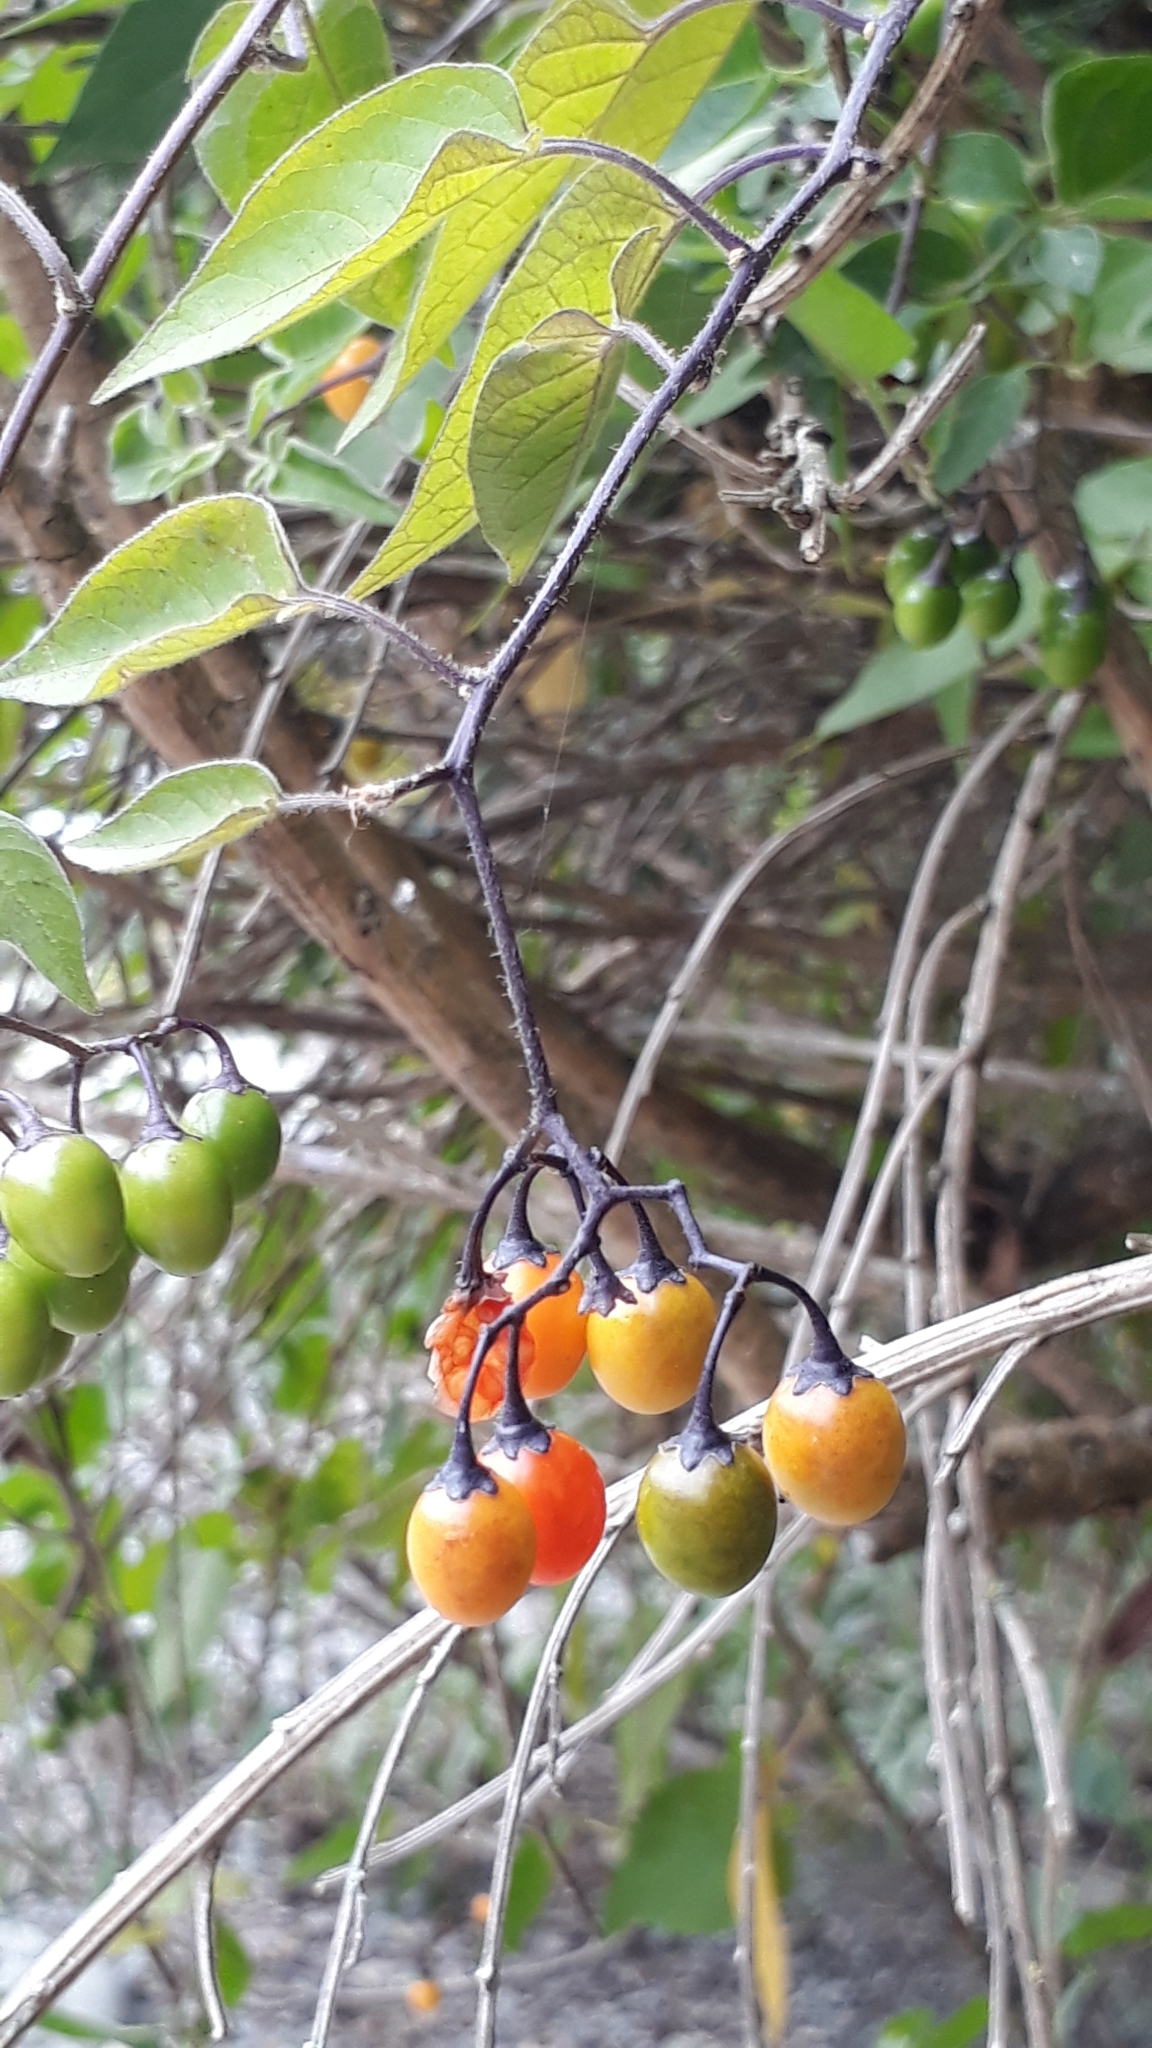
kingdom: Plantae
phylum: Tracheophyta
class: Magnoliopsida
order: Solanales
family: Solanaceae
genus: Solanum
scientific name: Solanum dulcamara
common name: Climbing nightshade
